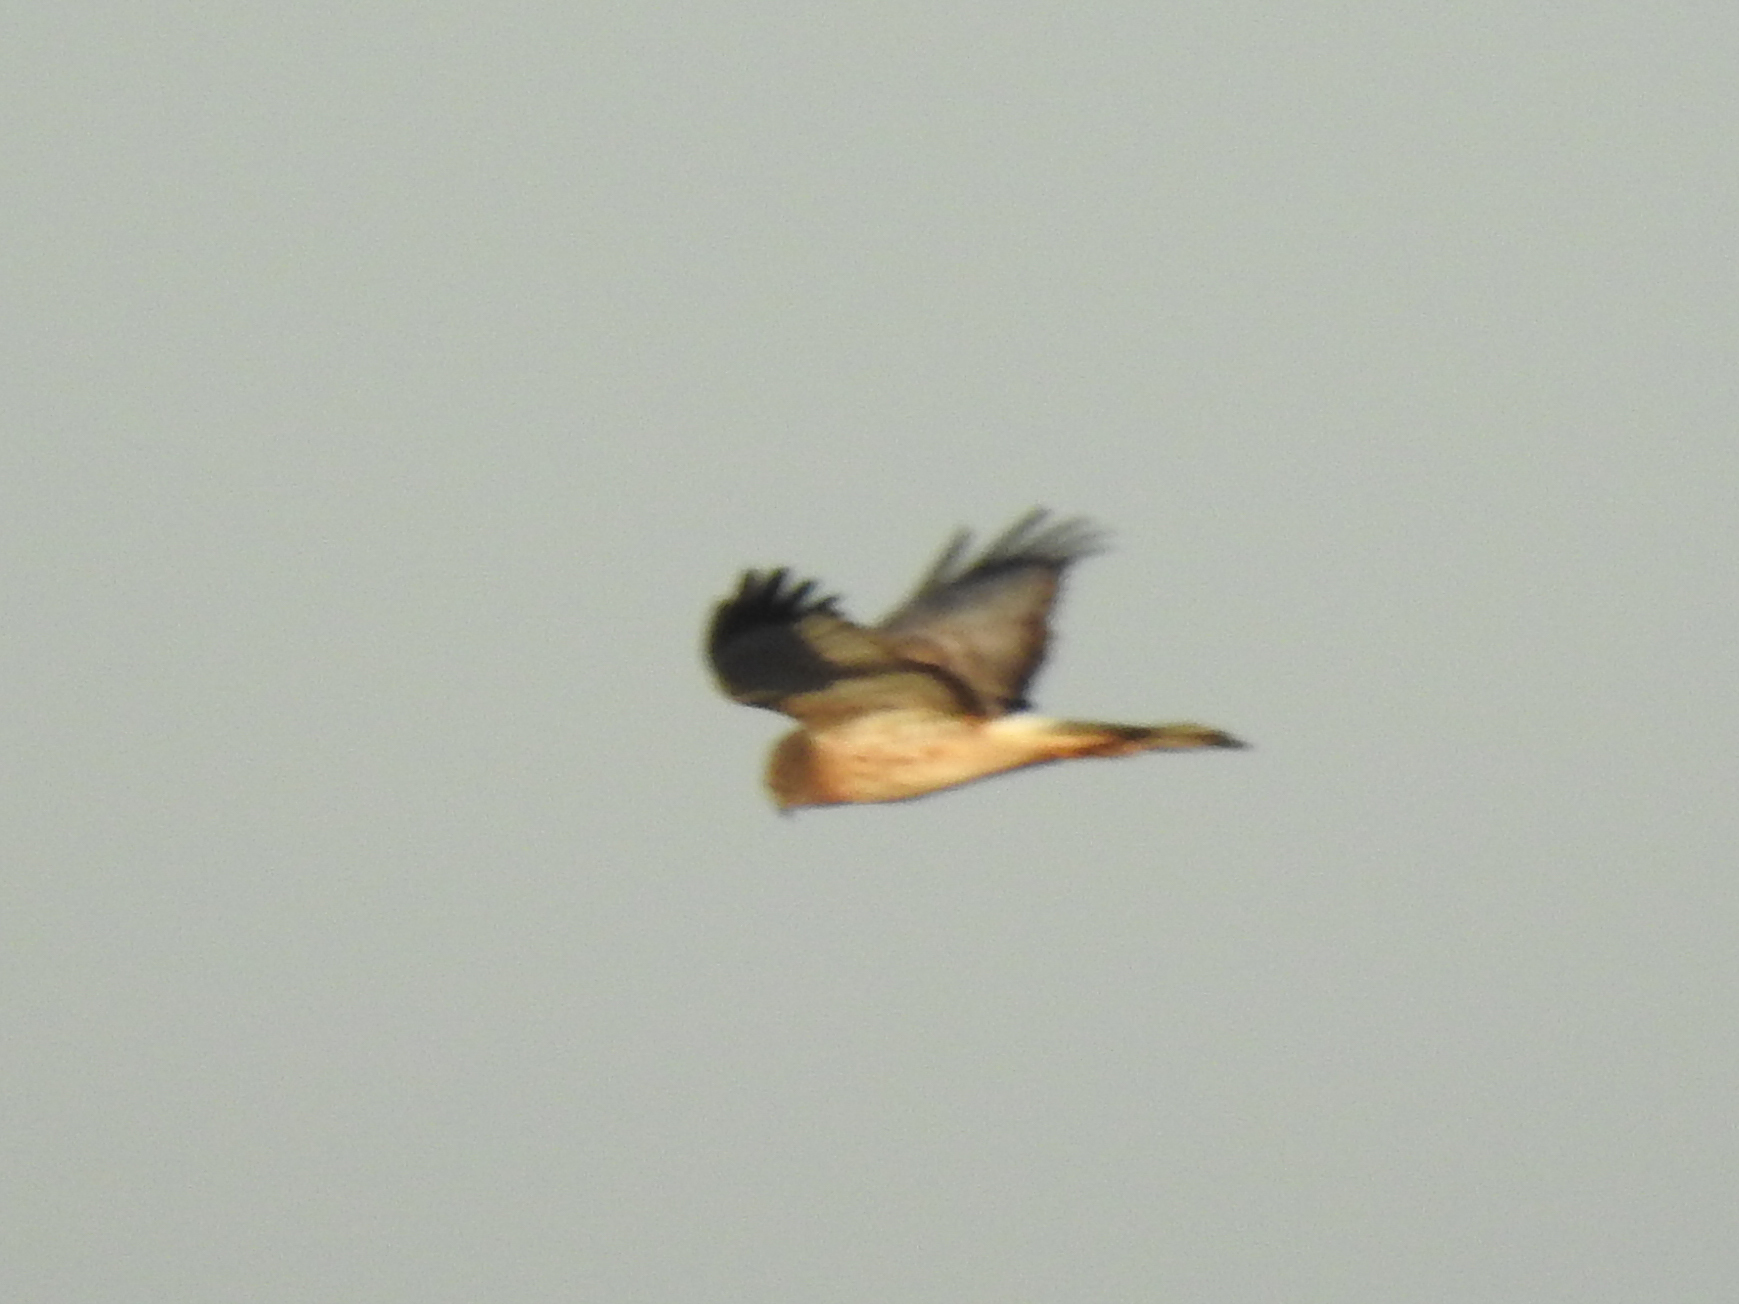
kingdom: Animalia
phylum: Chordata
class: Aves
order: Accipitriformes
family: Accipitridae
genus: Circus
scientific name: Circus cyaneus
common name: Hen harrier
